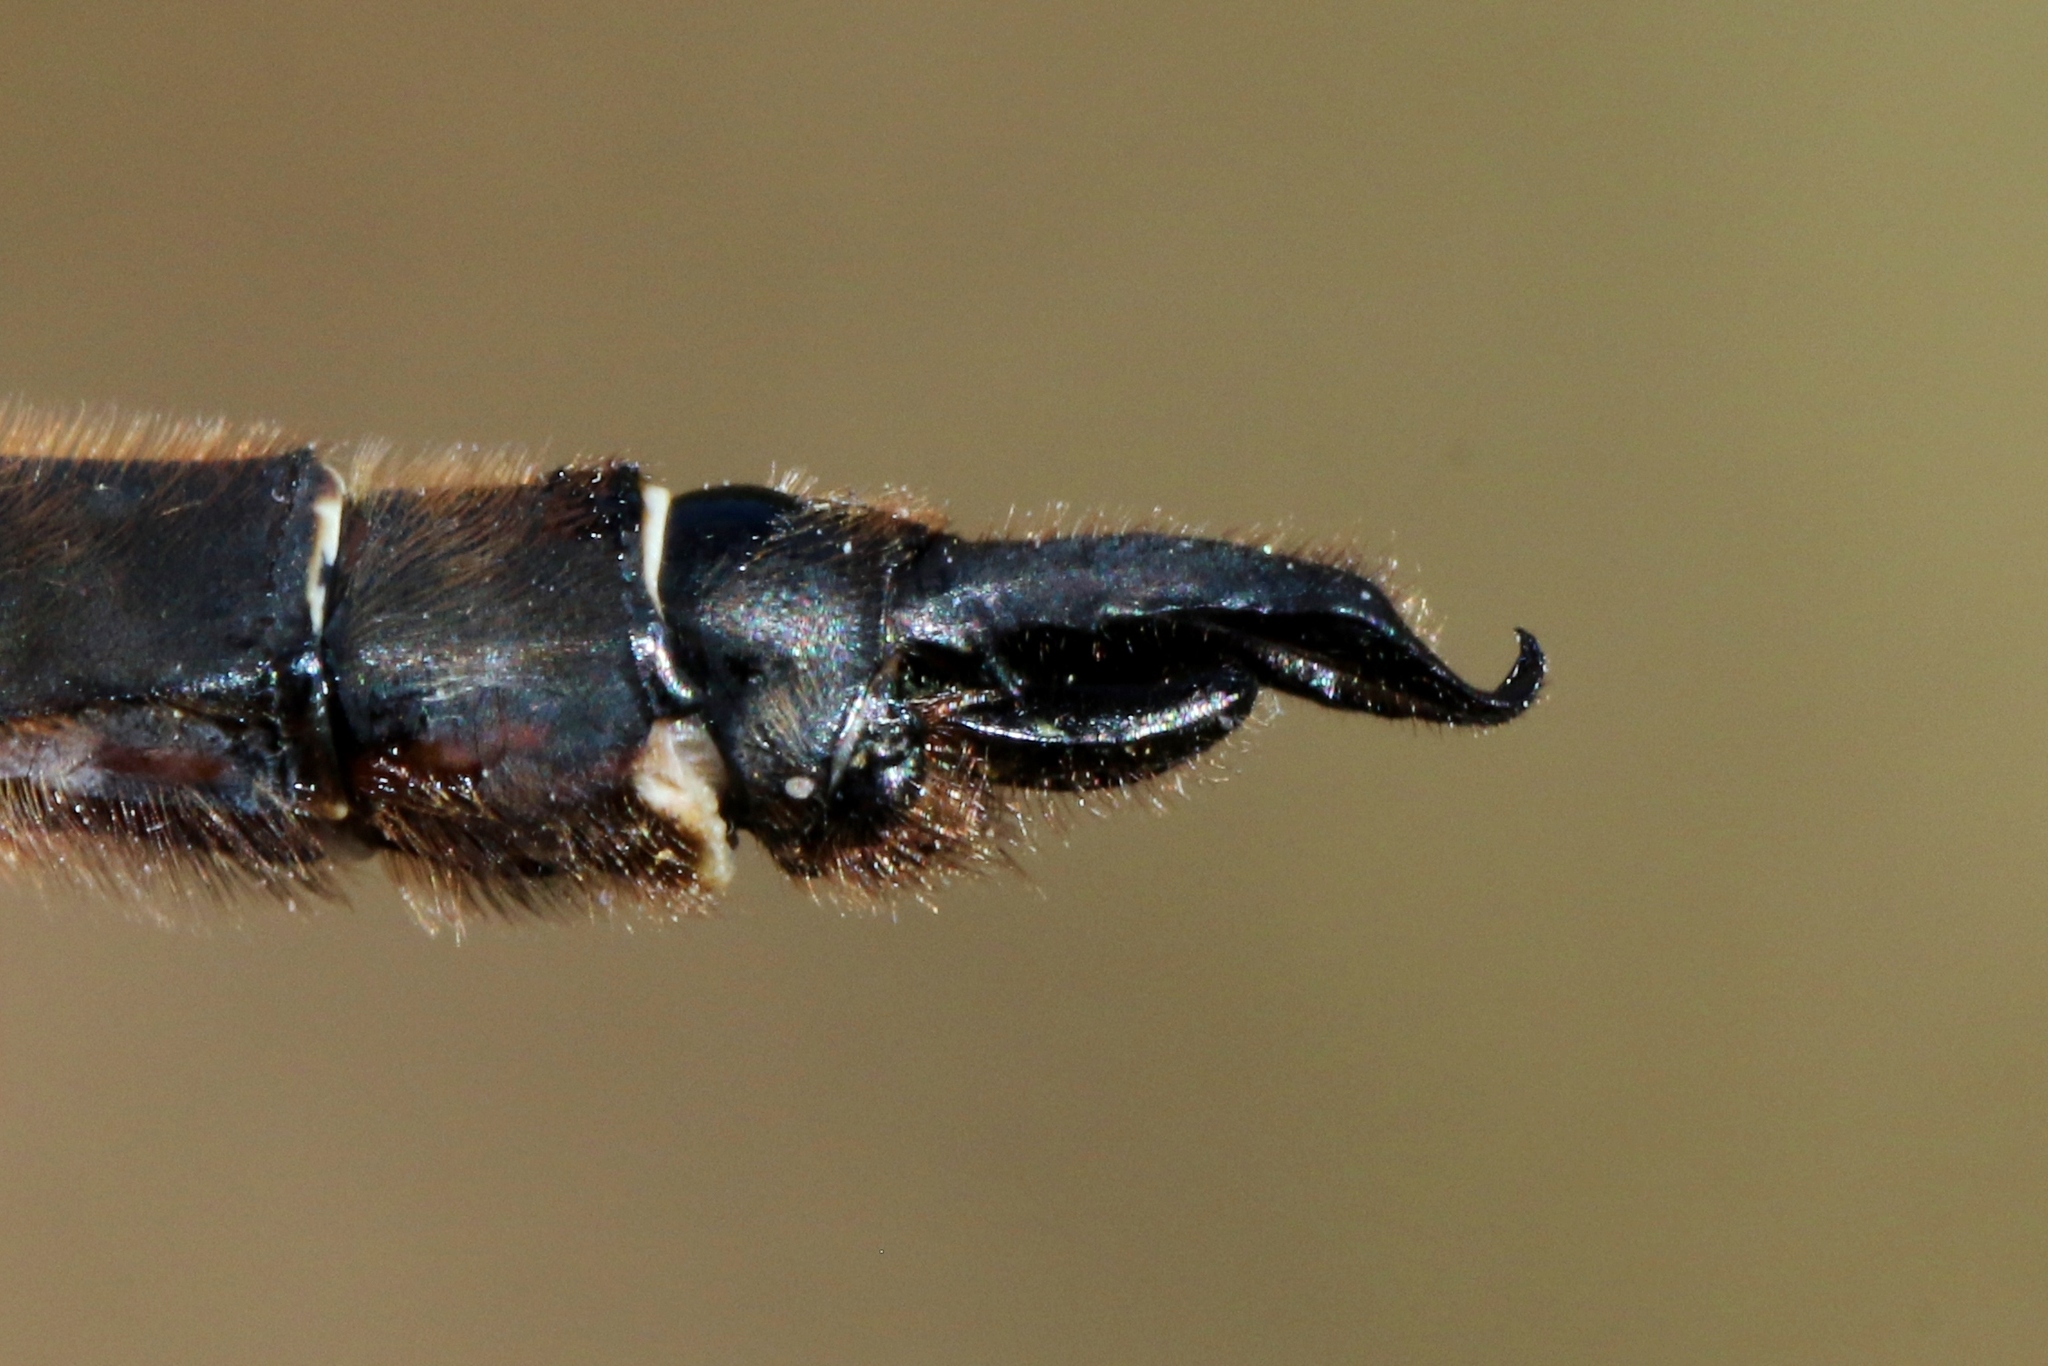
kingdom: Animalia
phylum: Arthropoda
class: Insecta
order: Odonata
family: Corduliidae
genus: Somatochlora
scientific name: Somatochlora septentrionalis
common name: Muskeg emerald
